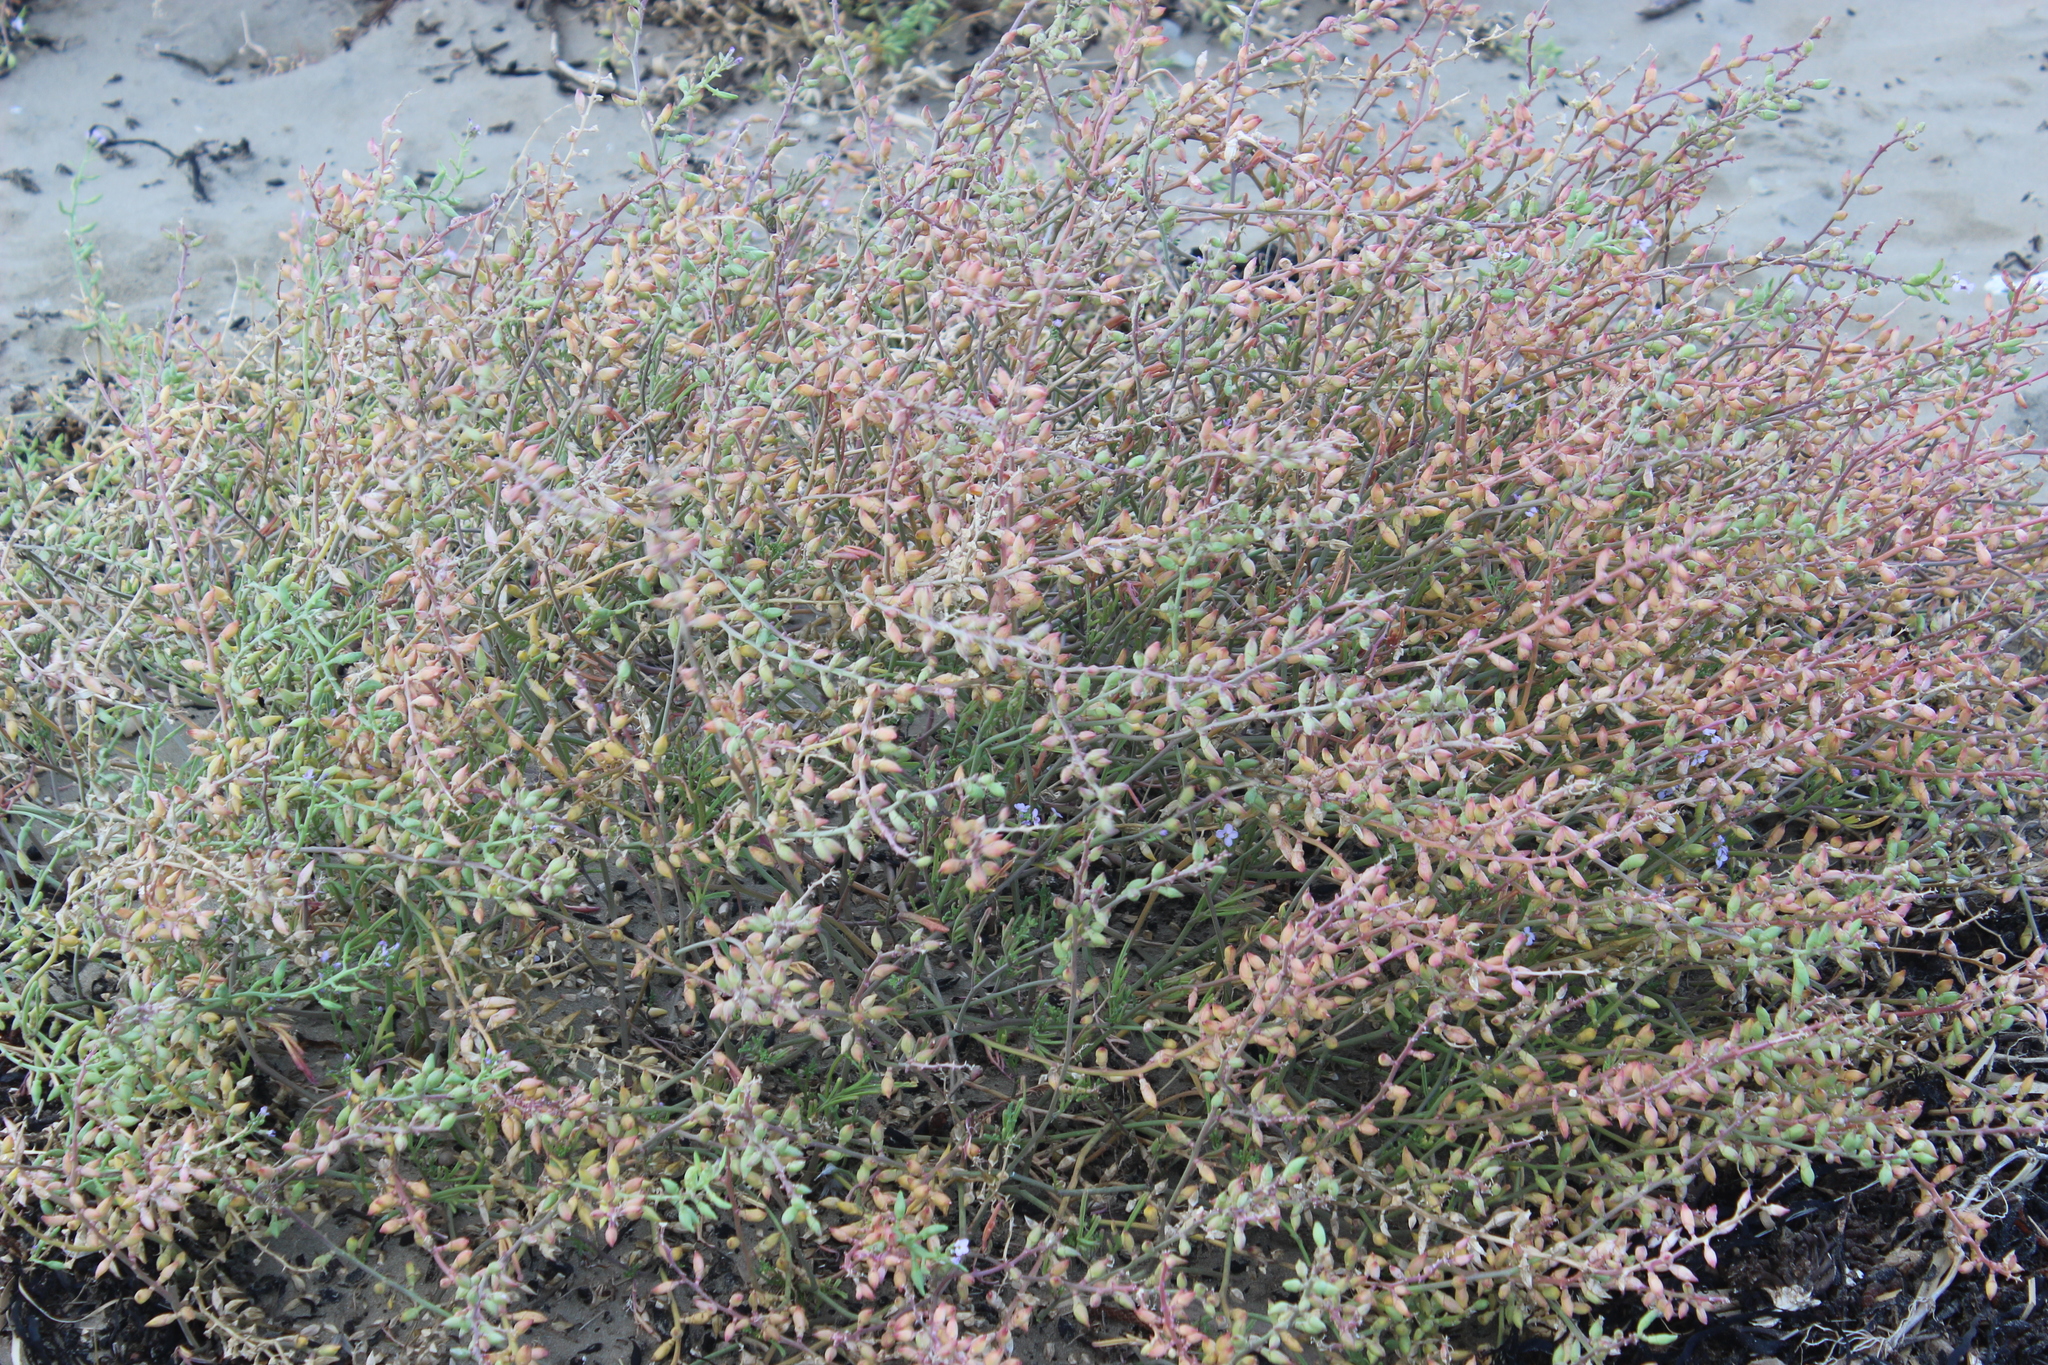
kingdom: Plantae
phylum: Tracheophyta
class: Magnoliopsida
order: Brassicales
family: Brassicaceae
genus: Cakile
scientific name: Cakile edentula
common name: American sea rocket
